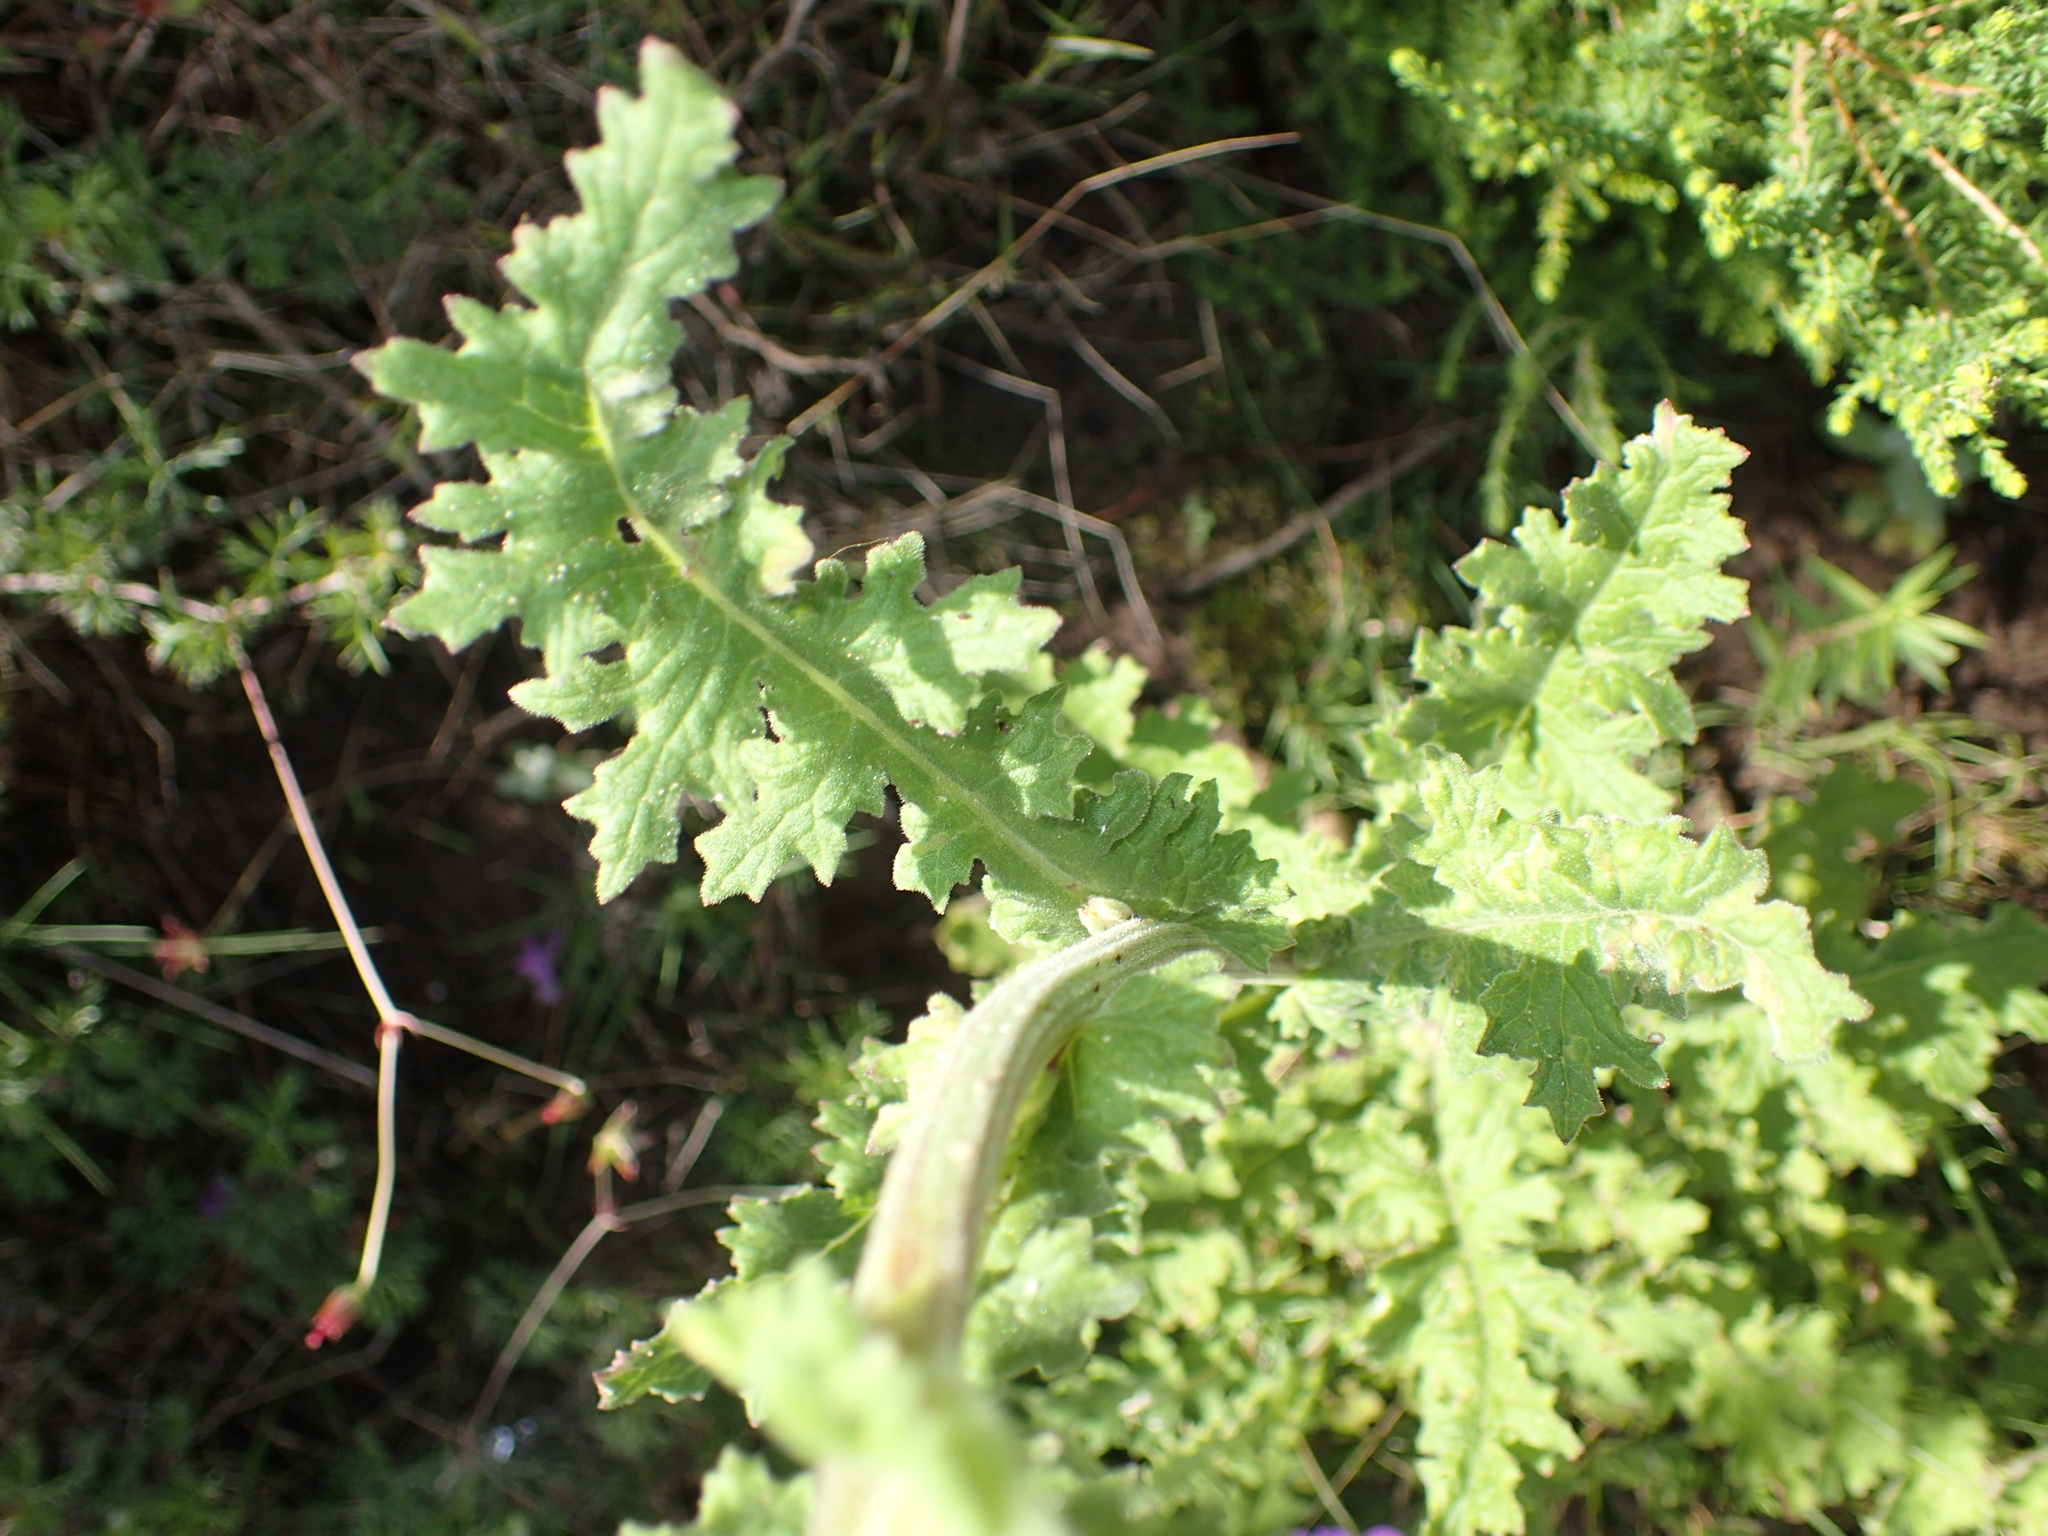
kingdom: Plantae
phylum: Tracheophyta
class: Magnoliopsida
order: Asterales
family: Asteraceae
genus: Senecio
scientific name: Senecio purpureus
